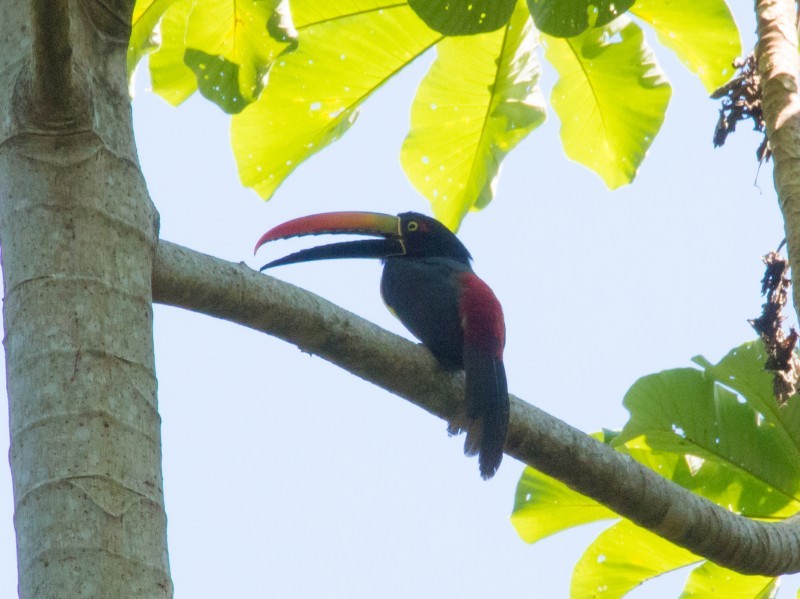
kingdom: Animalia
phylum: Chordata
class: Aves
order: Piciformes
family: Ramphastidae
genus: Pteroglossus
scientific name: Pteroglossus frantzii
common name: Fiery-billed aracari
